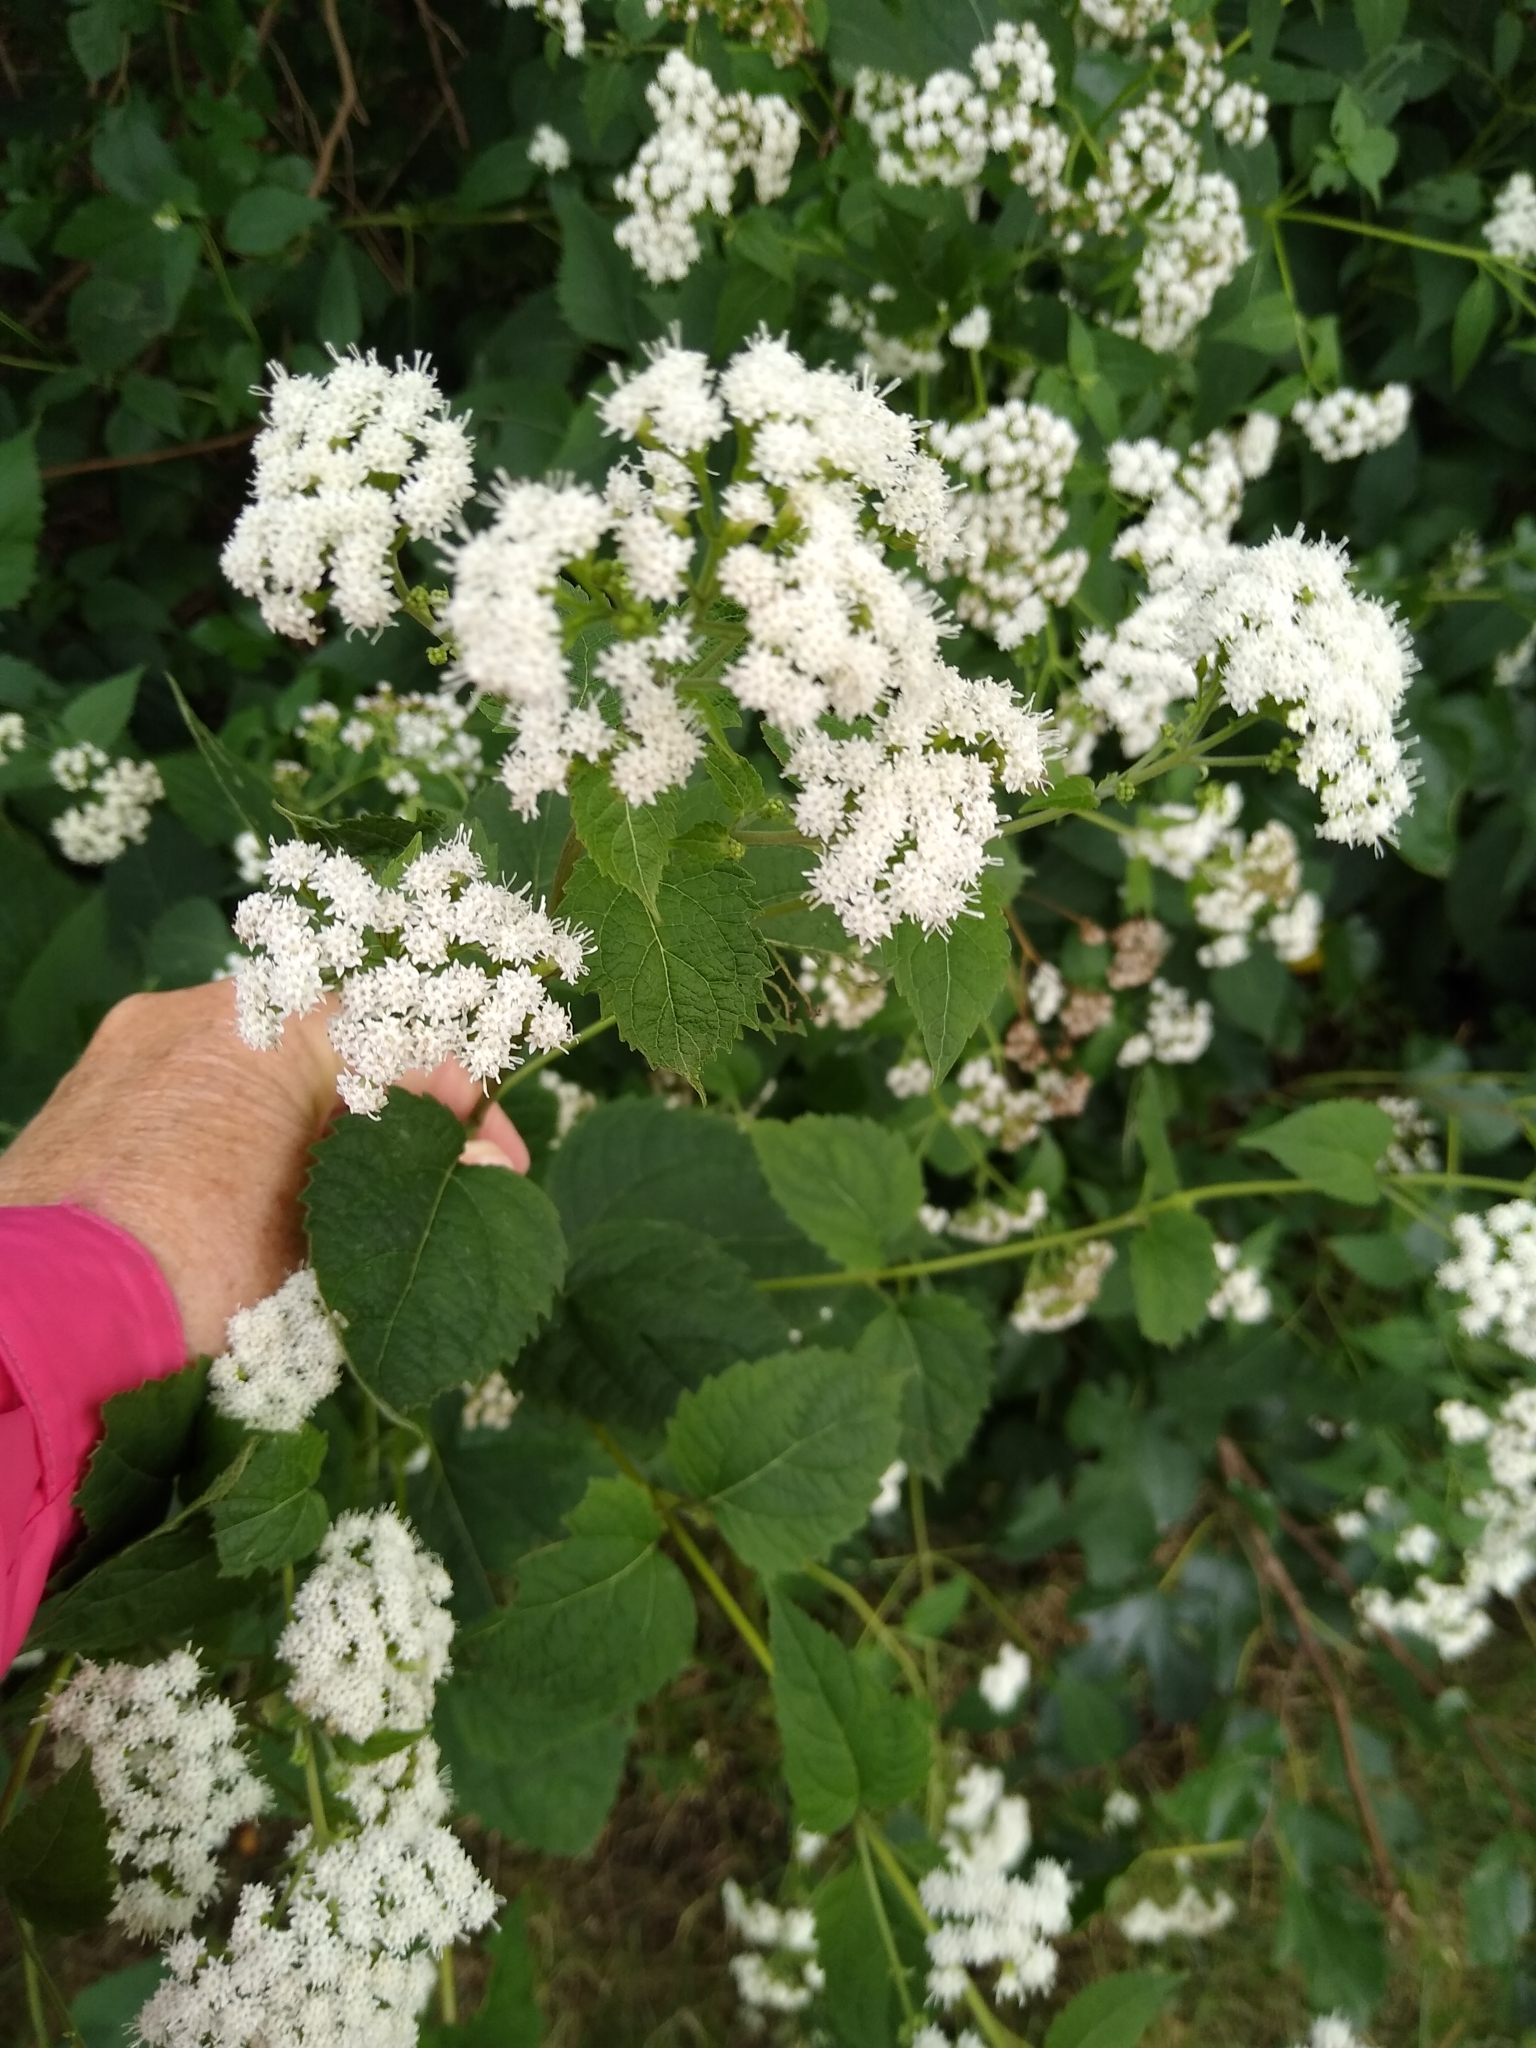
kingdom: Plantae
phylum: Tracheophyta
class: Magnoliopsida
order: Asterales
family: Asteraceae
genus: Ageratina
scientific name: Ageratina altissima
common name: White snakeroot
